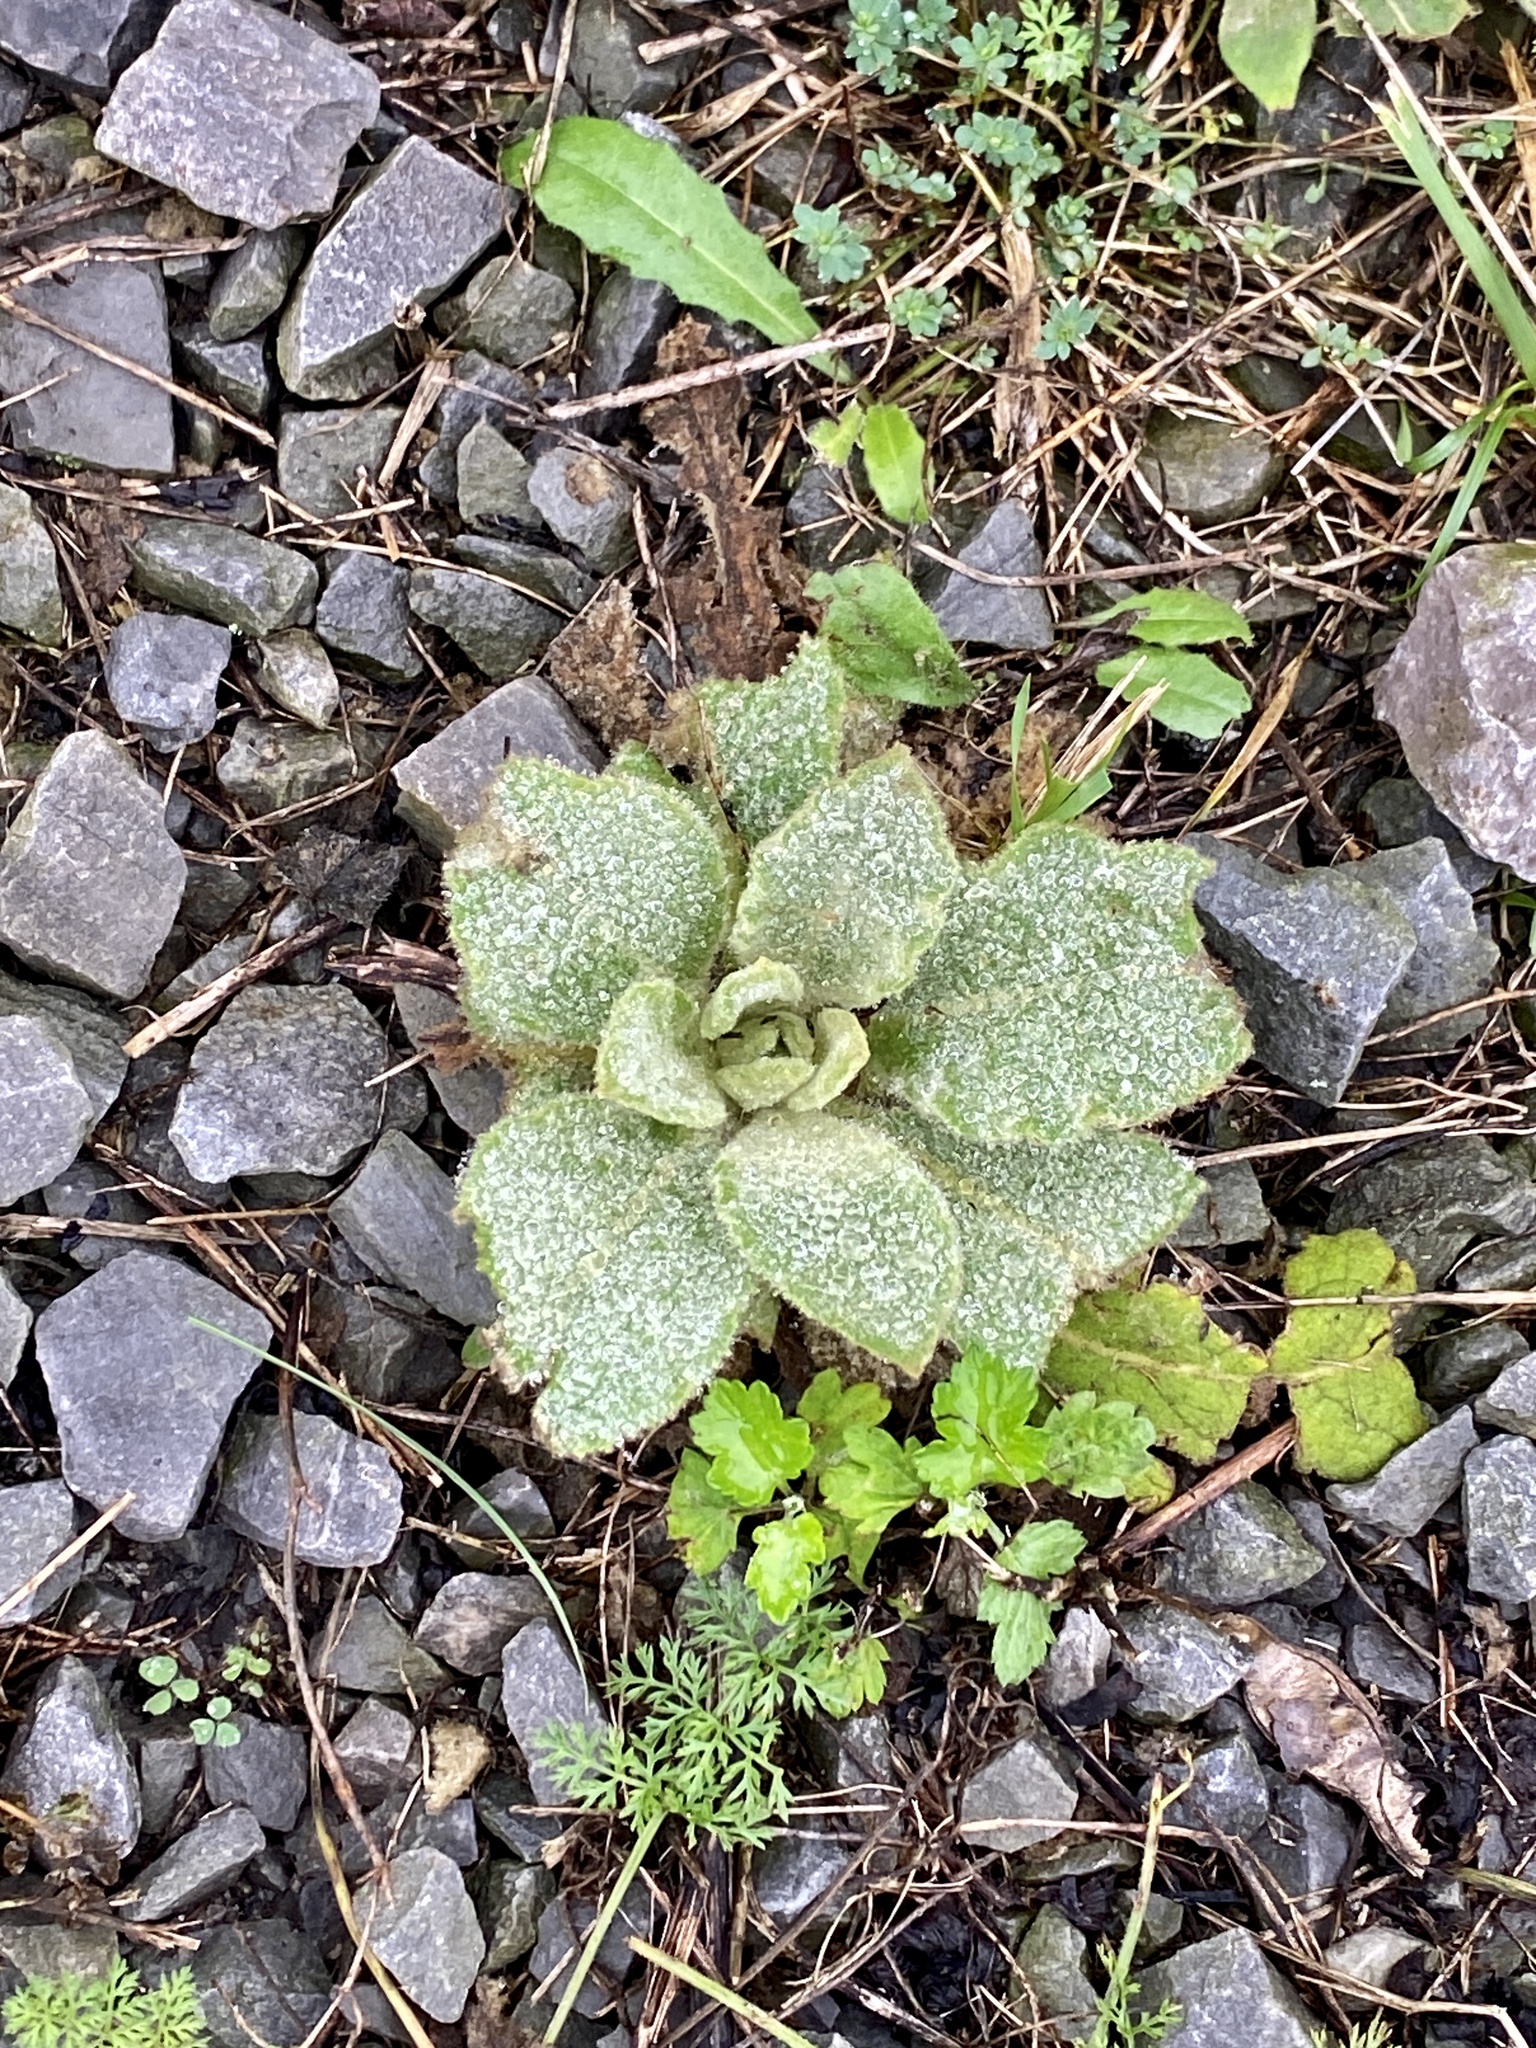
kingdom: Plantae
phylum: Tracheophyta
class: Magnoliopsida
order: Lamiales
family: Scrophulariaceae
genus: Verbascum
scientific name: Verbascum thapsus
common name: Common mullein
